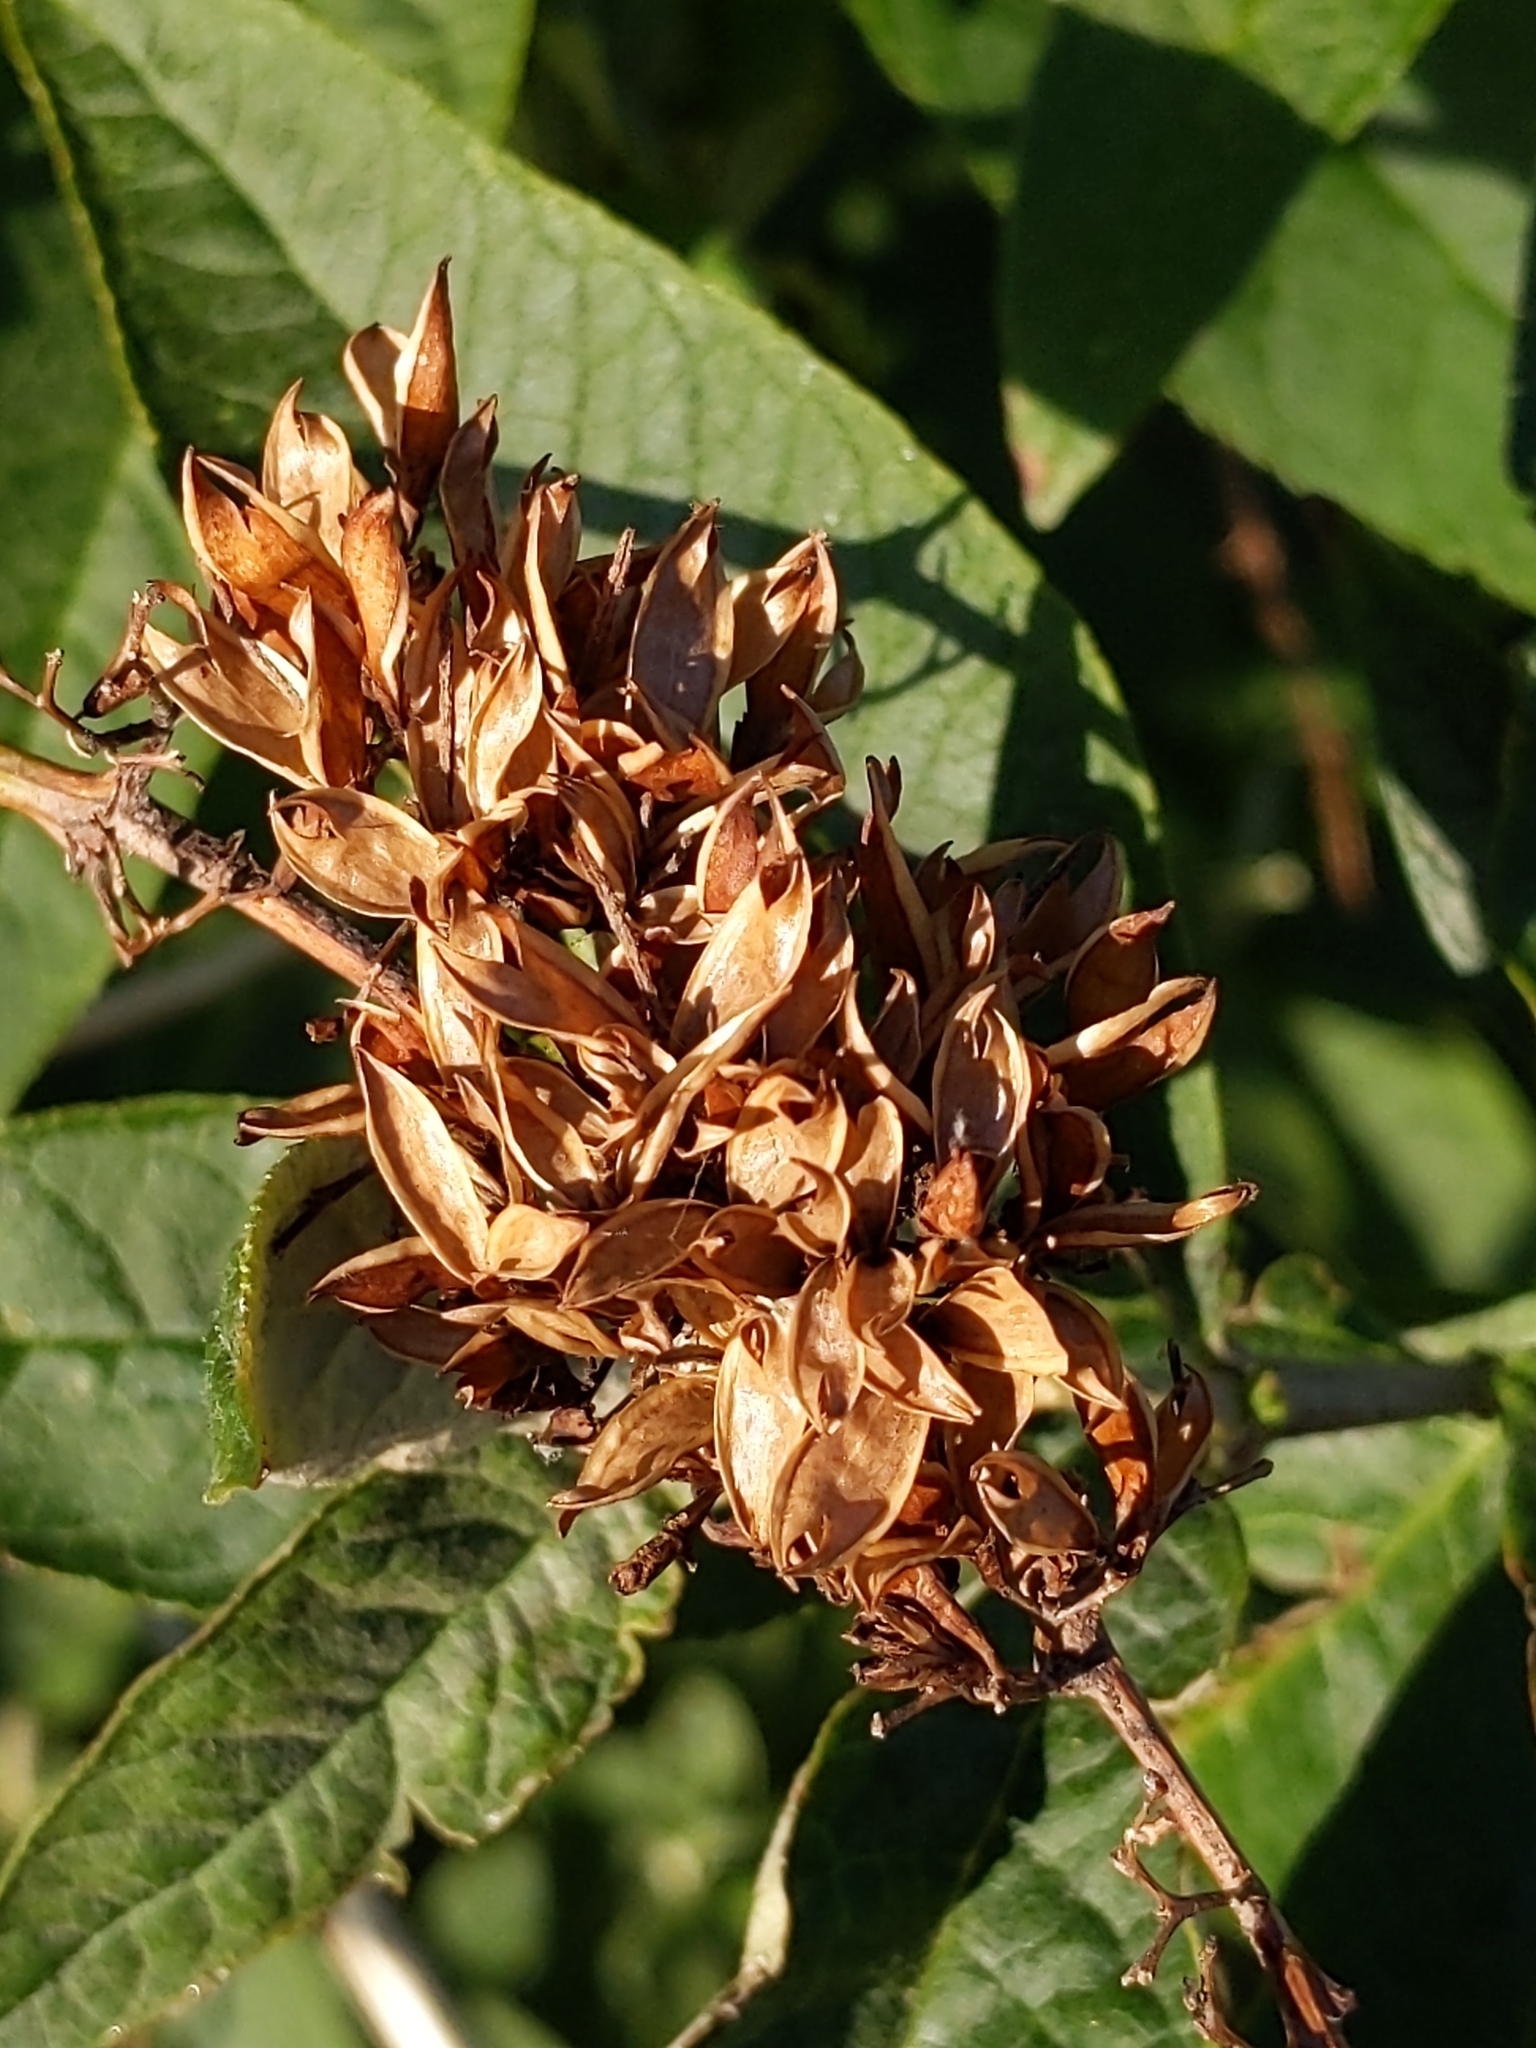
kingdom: Plantae
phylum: Tracheophyta
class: Magnoliopsida
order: Lamiales
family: Scrophulariaceae
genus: Buddleja
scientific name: Buddleja davidii
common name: Butterfly-bush
